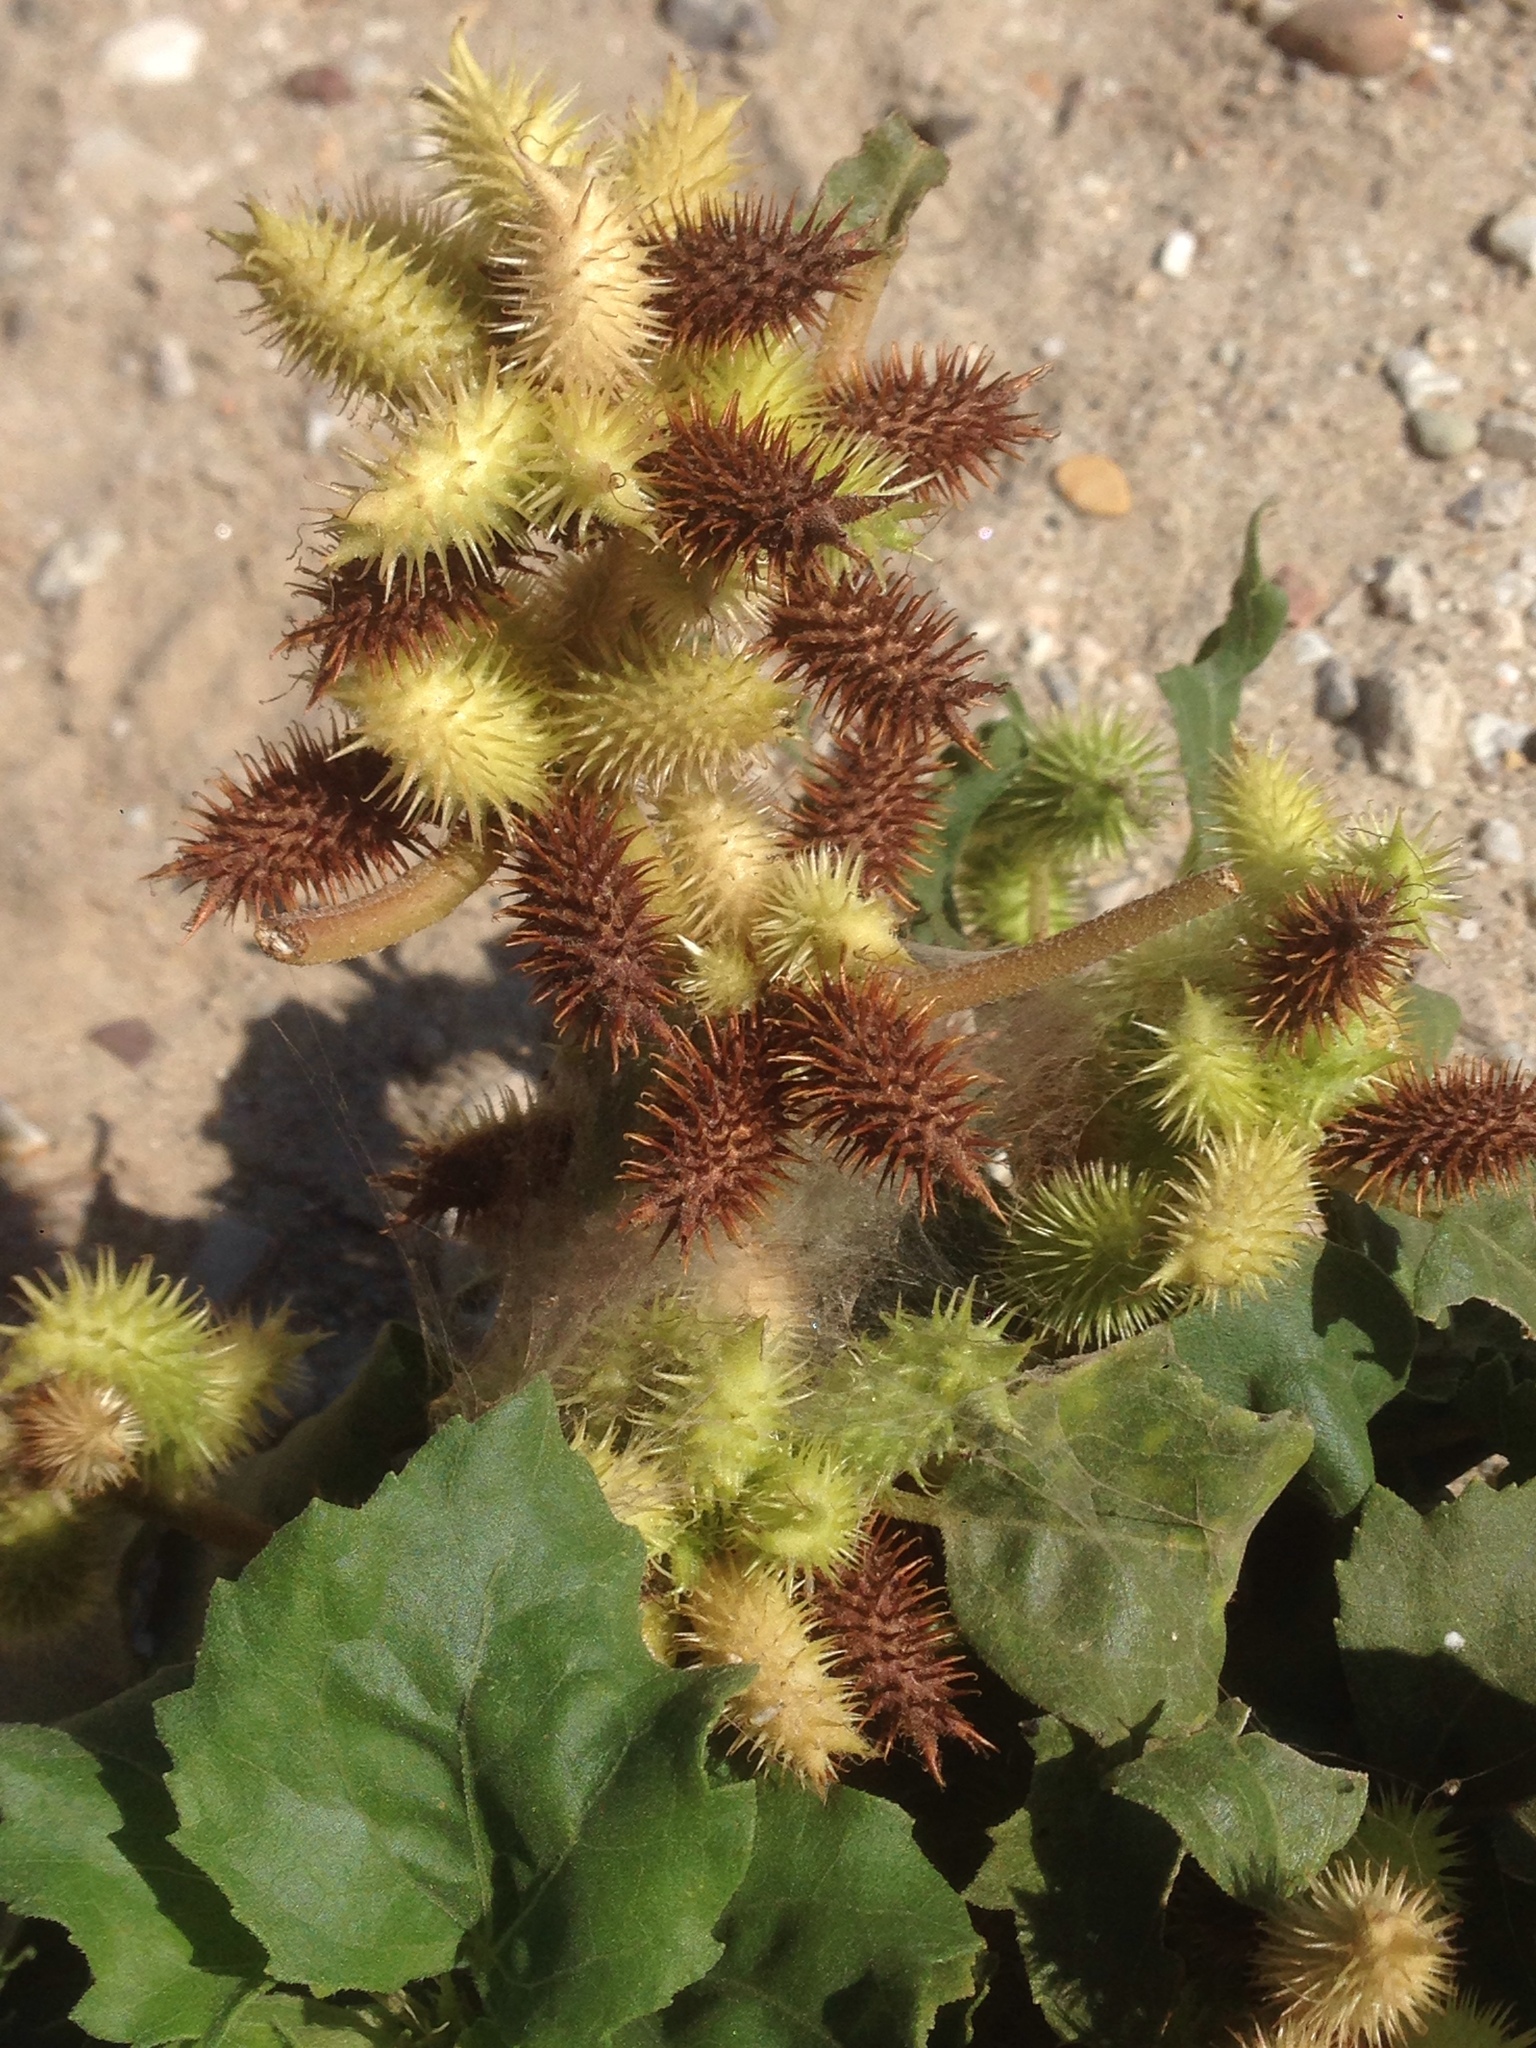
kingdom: Plantae
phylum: Tracheophyta
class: Magnoliopsida
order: Asterales
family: Asteraceae
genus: Xanthium
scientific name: Xanthium strumarium
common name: Rough cocklebur
